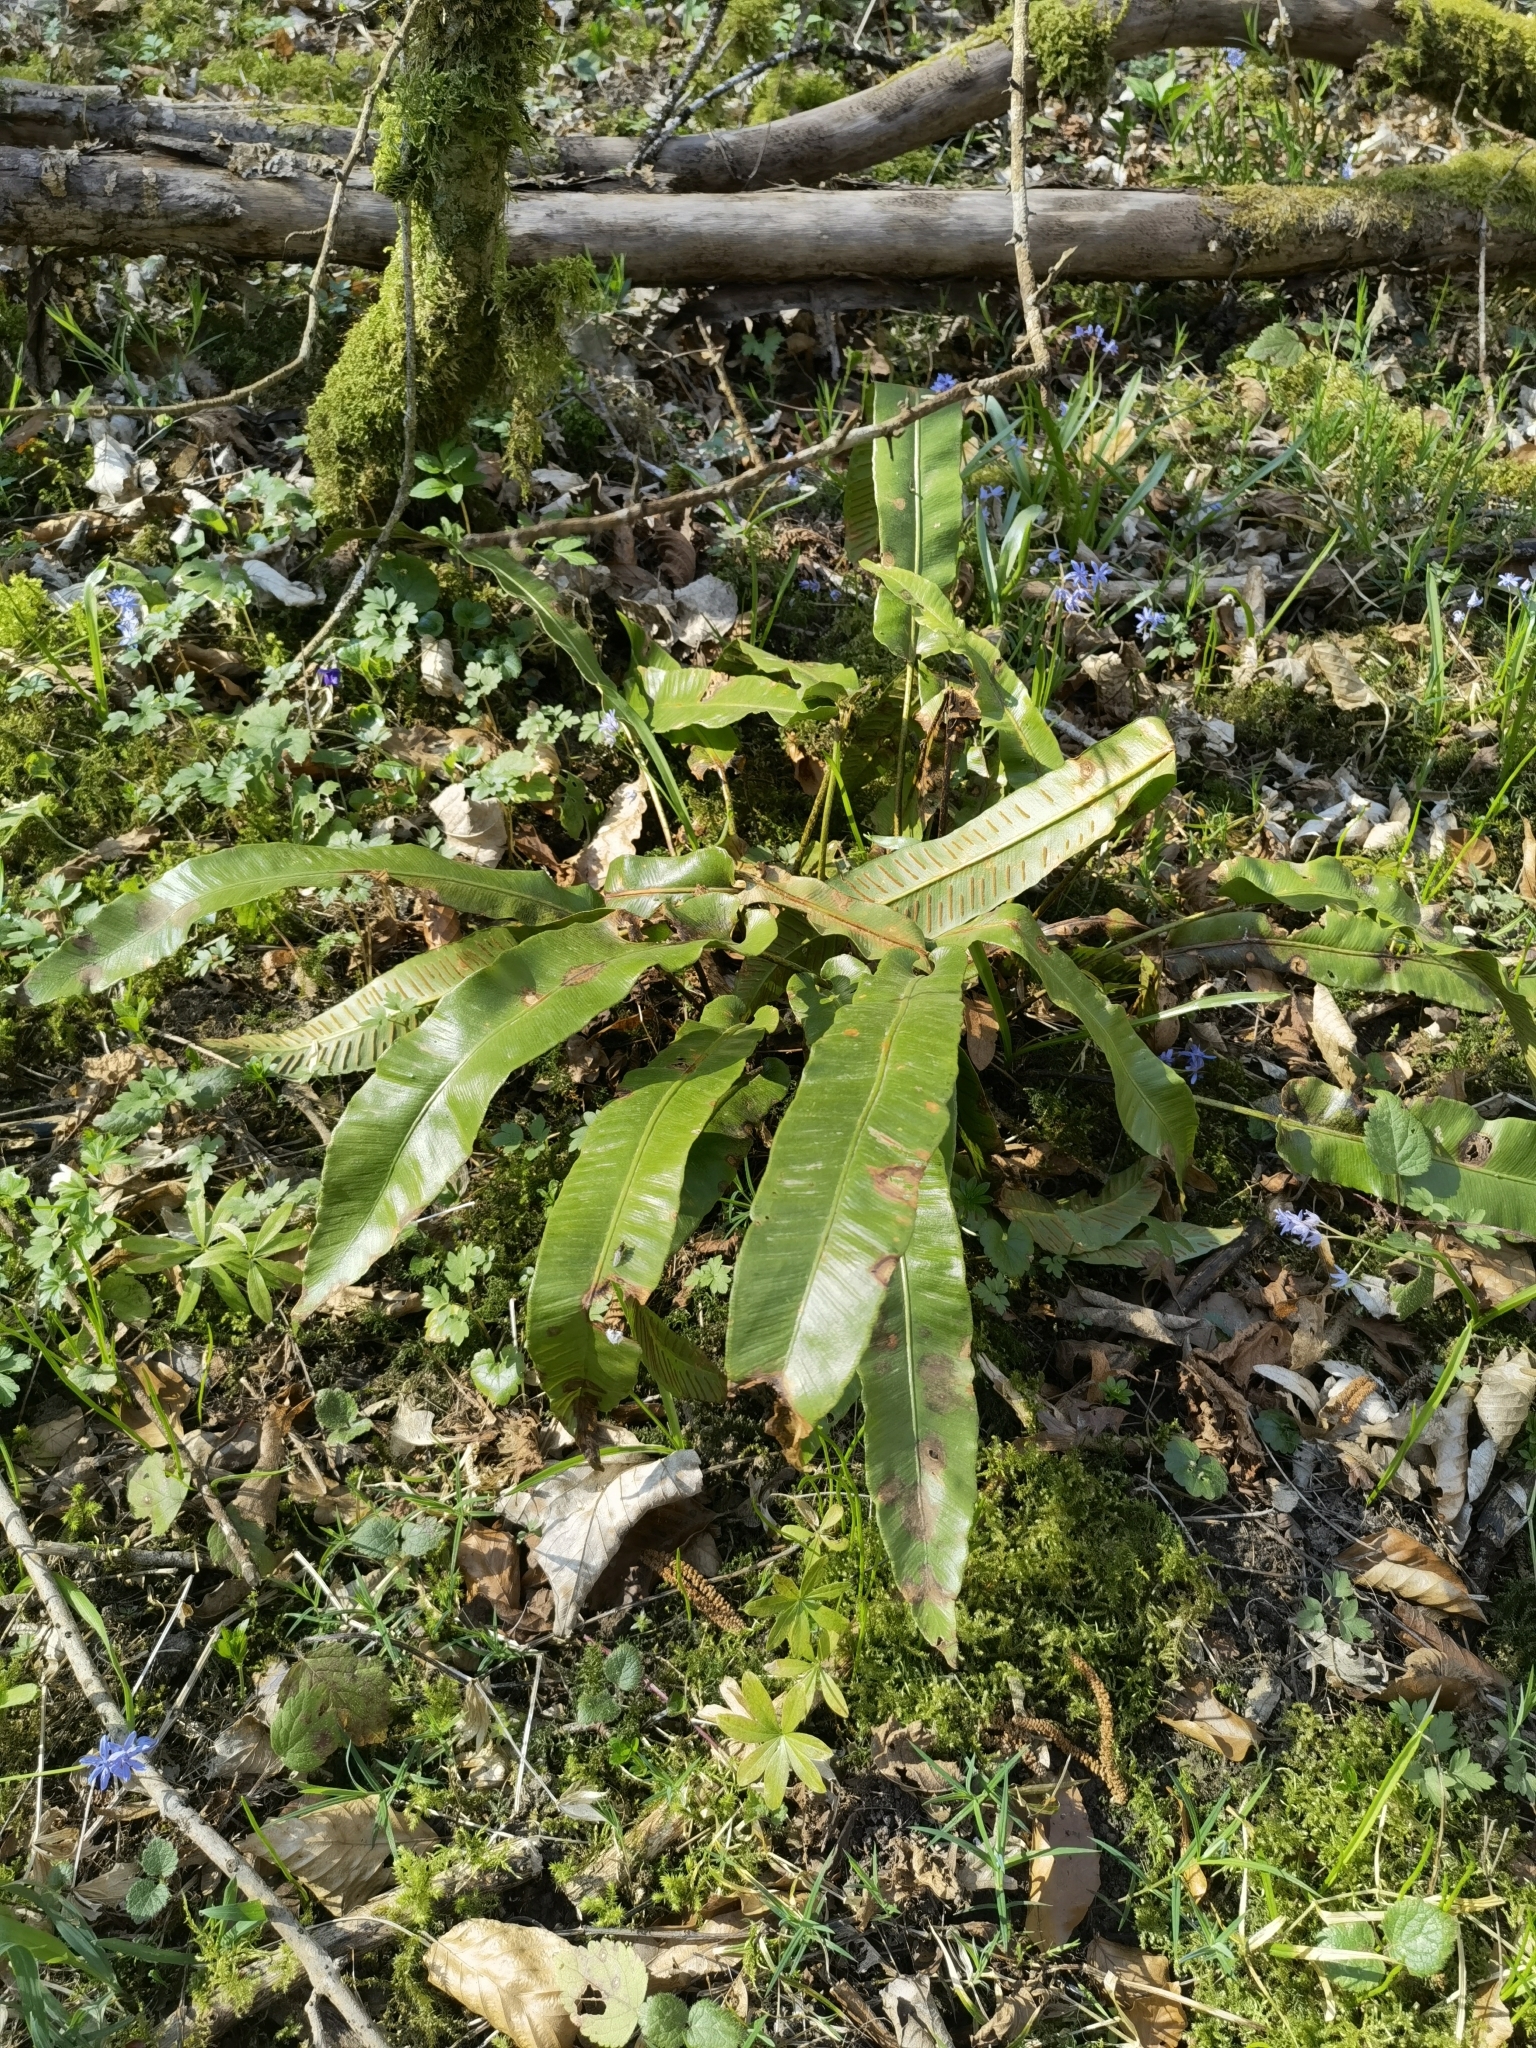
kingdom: Plantae
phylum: Tracheophyta
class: Polypodiopsida
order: Polypodiales
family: Aspleniaceae
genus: Asplenium
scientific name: Asplenium scolopendrium
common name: Hart's-tongue fern
